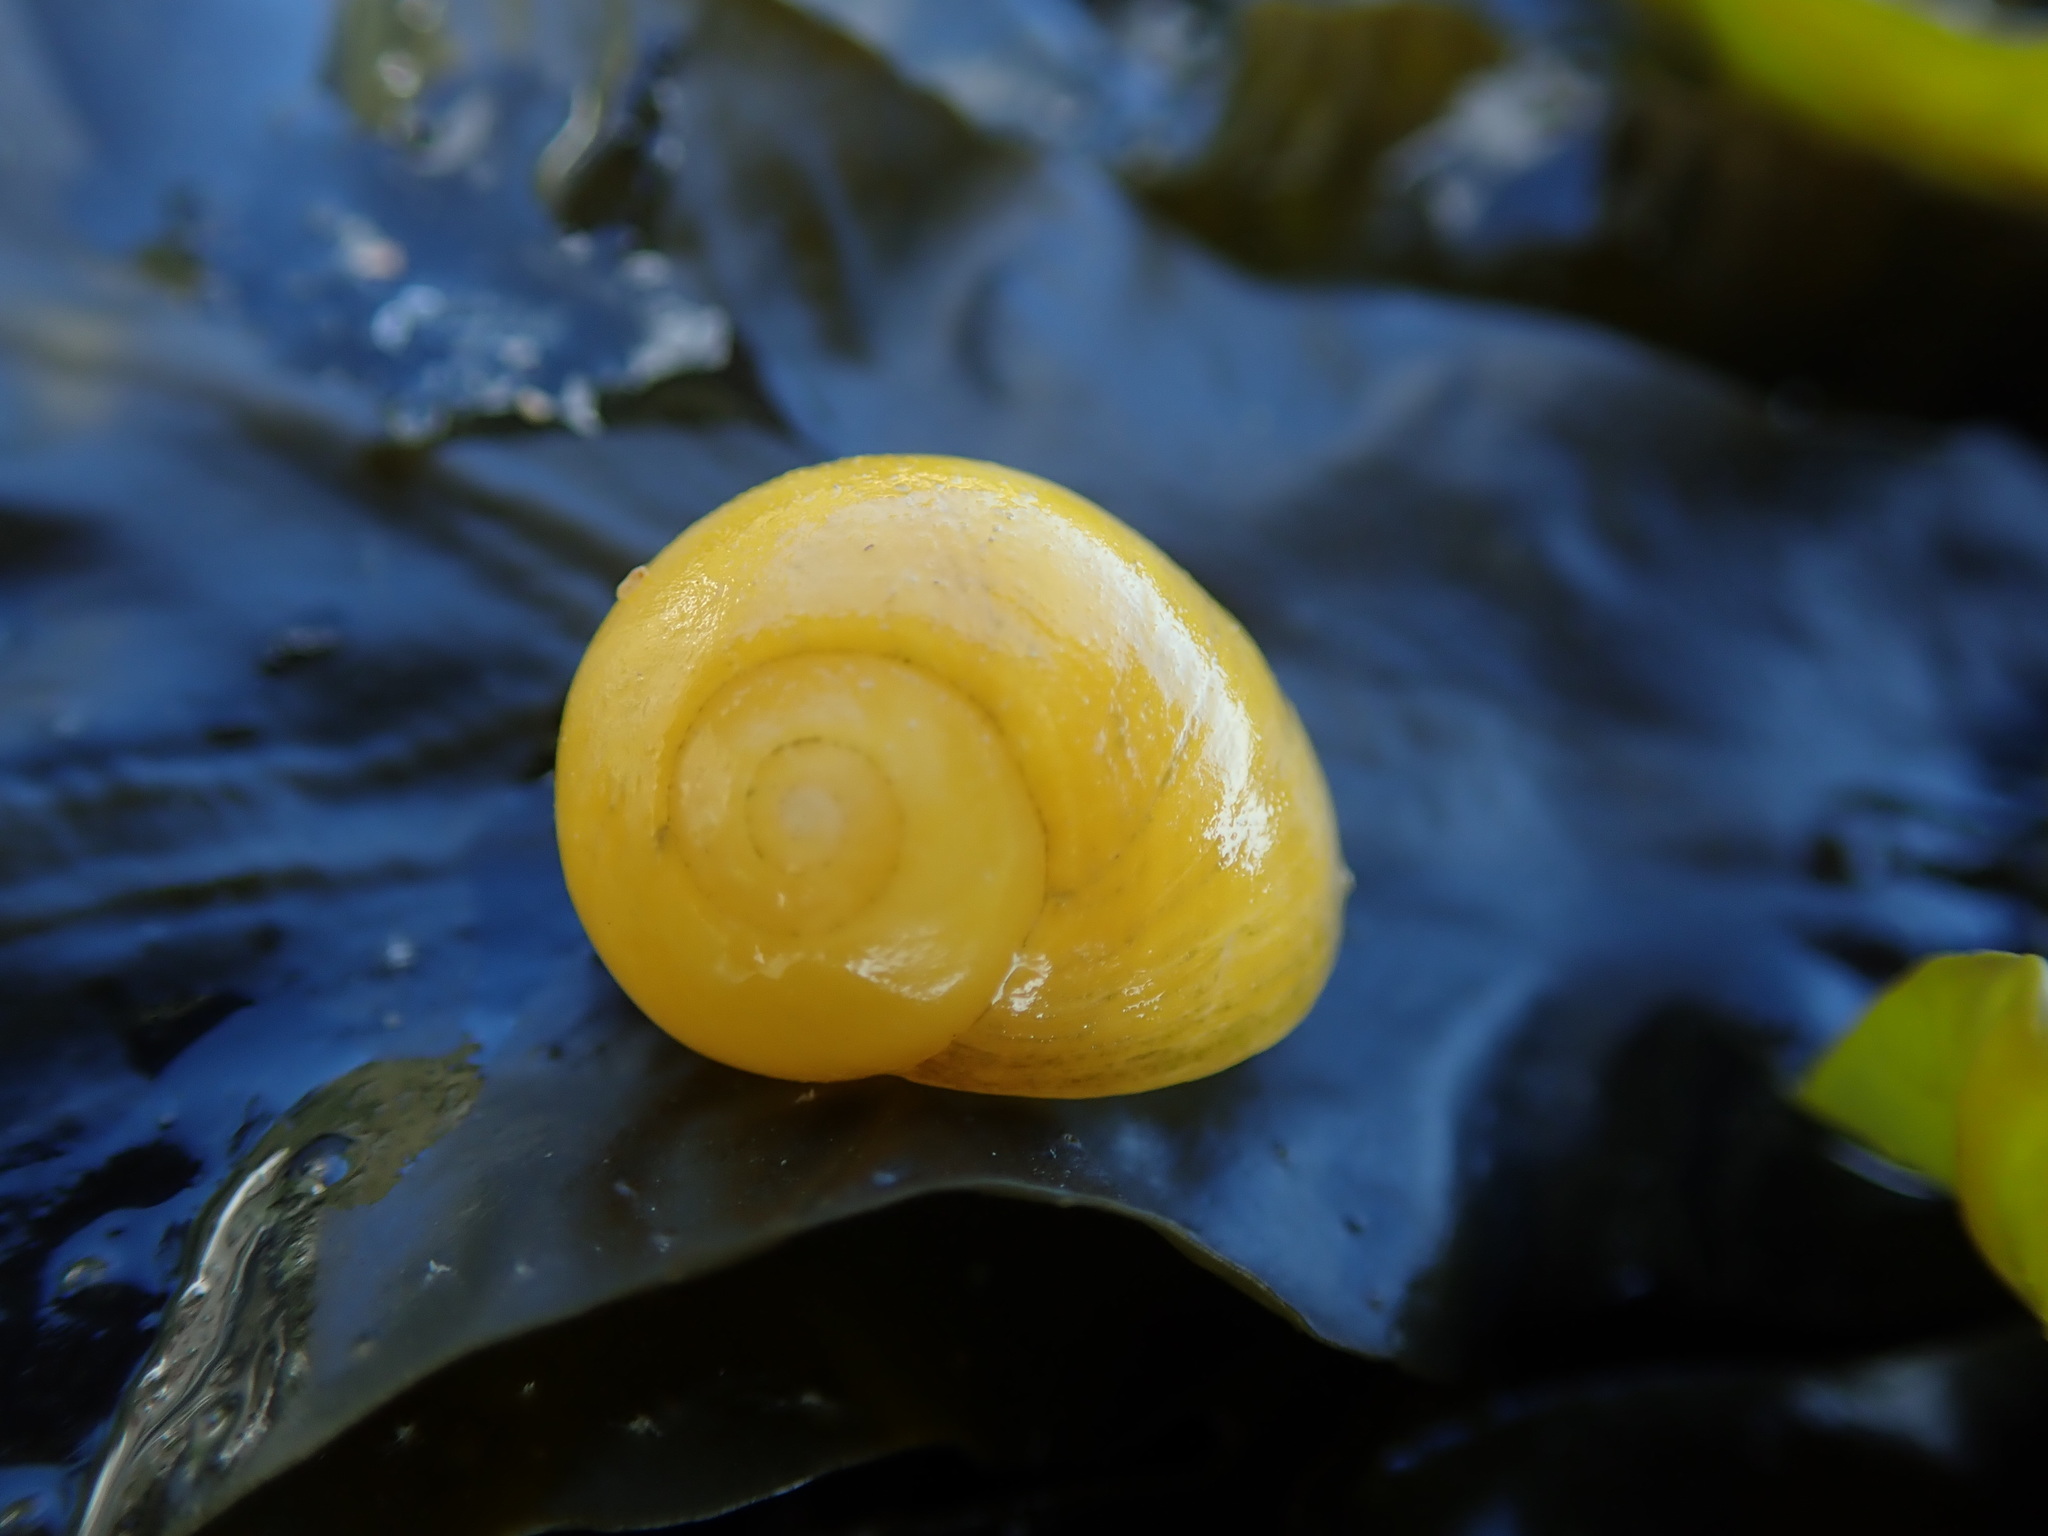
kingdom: Animalia
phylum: Mollusca
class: Gastropoda
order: Littorinimorpha
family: Littorinidae
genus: Littorina
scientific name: Littorina obtusata
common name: Flat periwinkle
